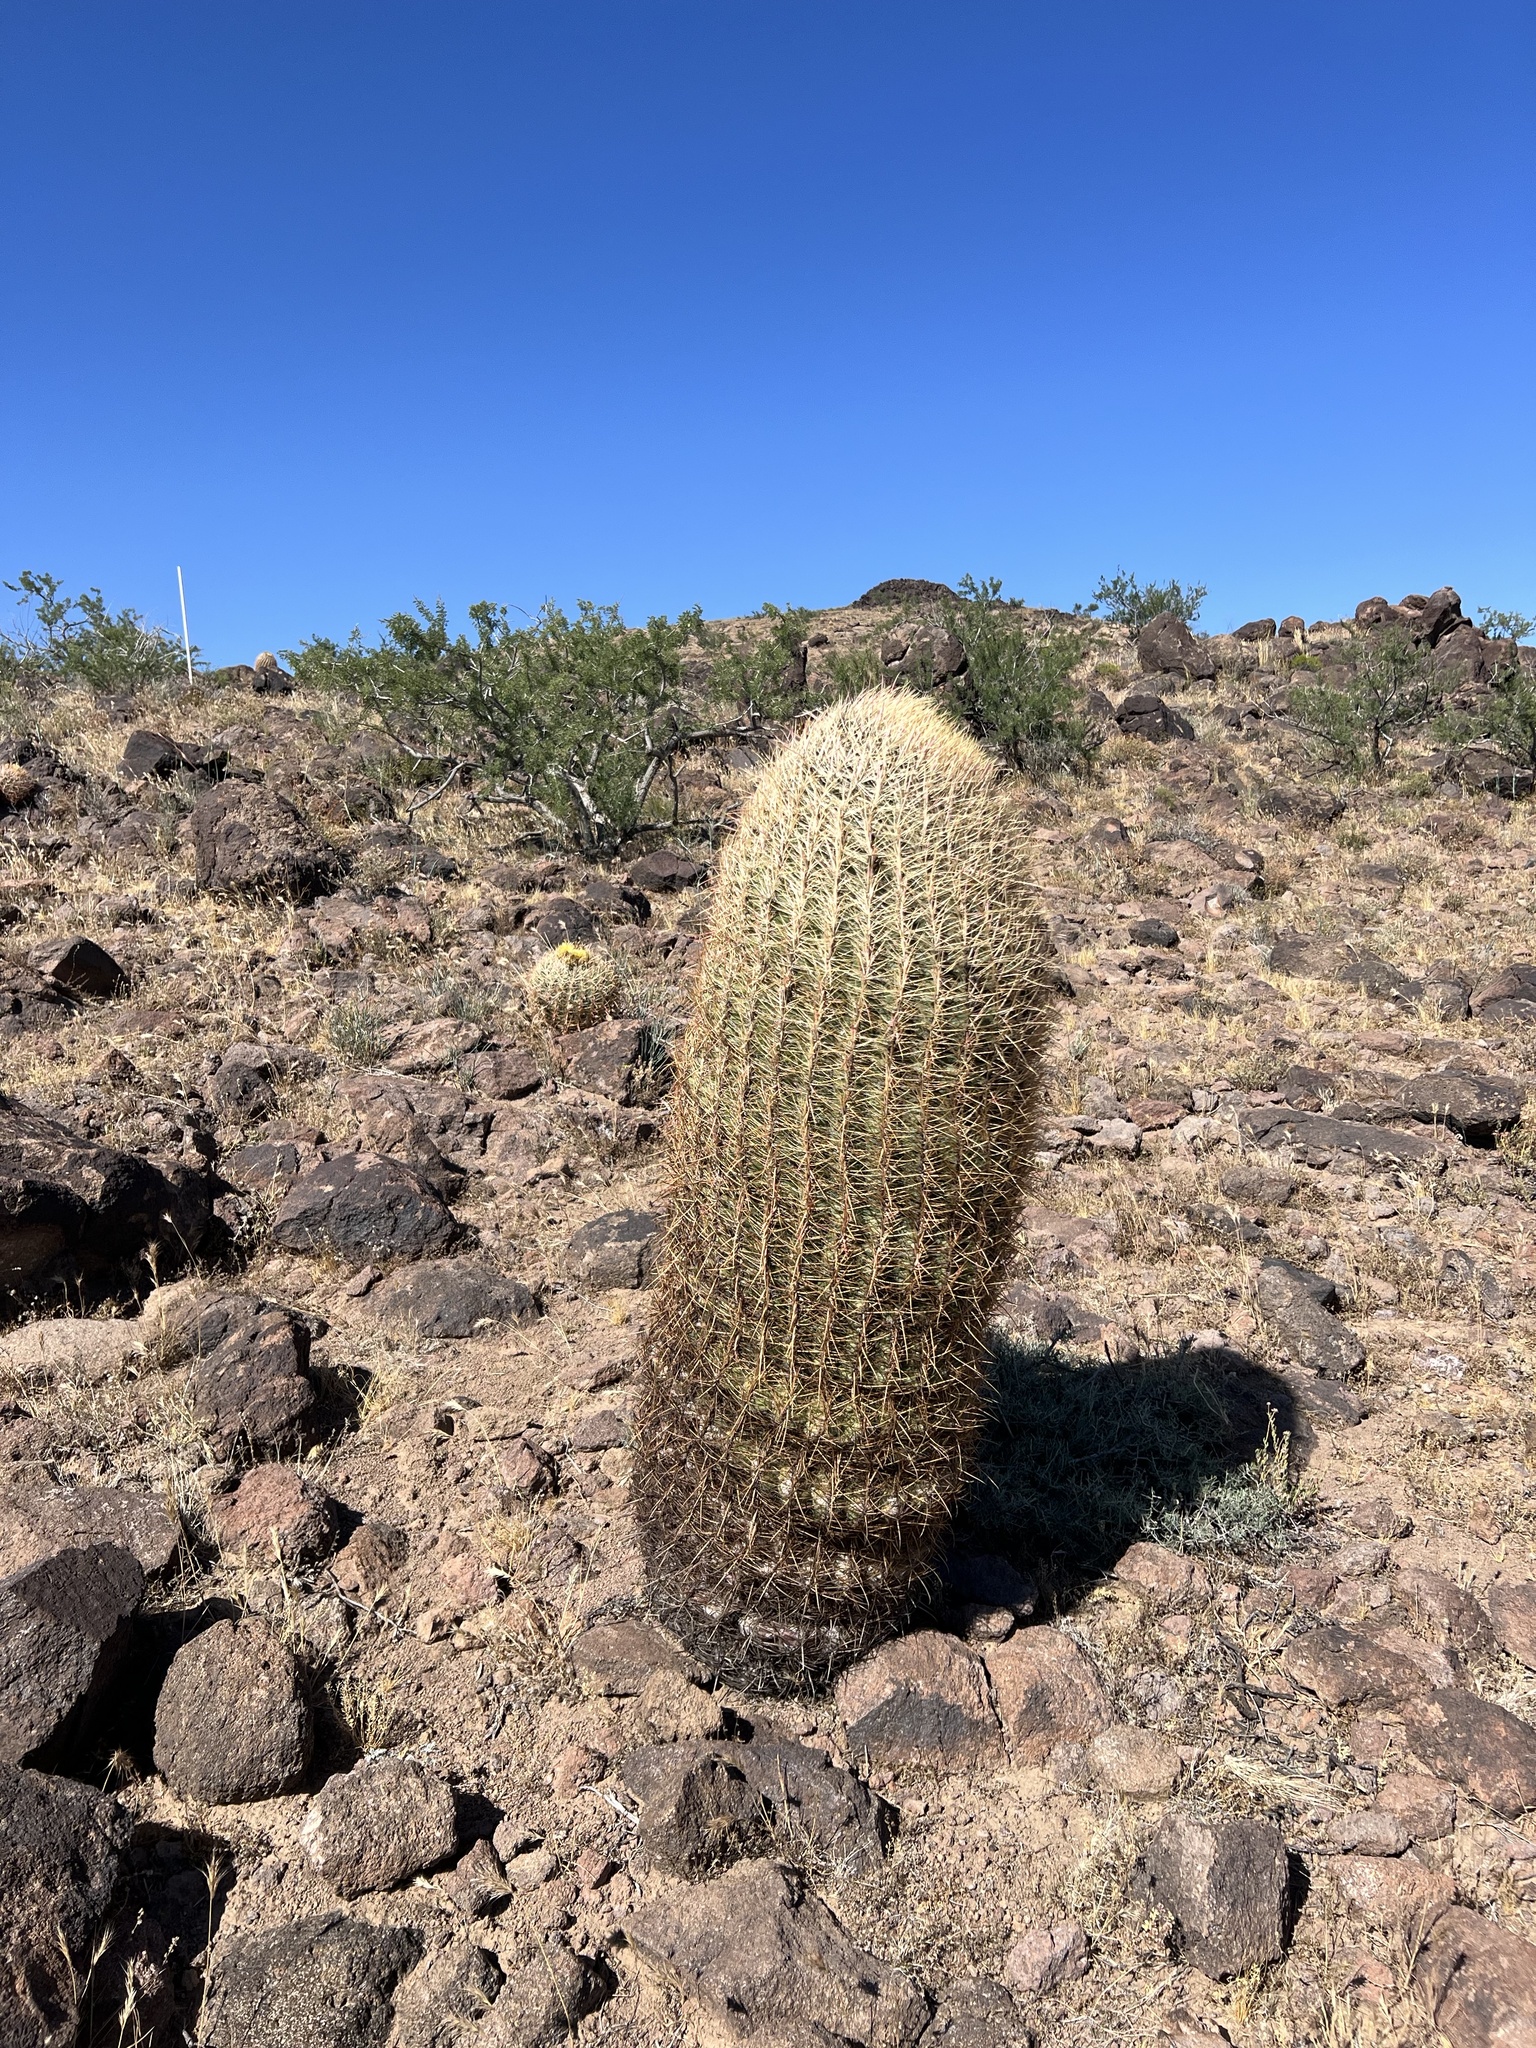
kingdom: Plantae
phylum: Tracheophyta
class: Magnoliopsida
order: Caryophyllales
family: Cactaceae
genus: Ferocactus
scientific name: Ferocactus cylindraceus
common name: California barrel cactus
